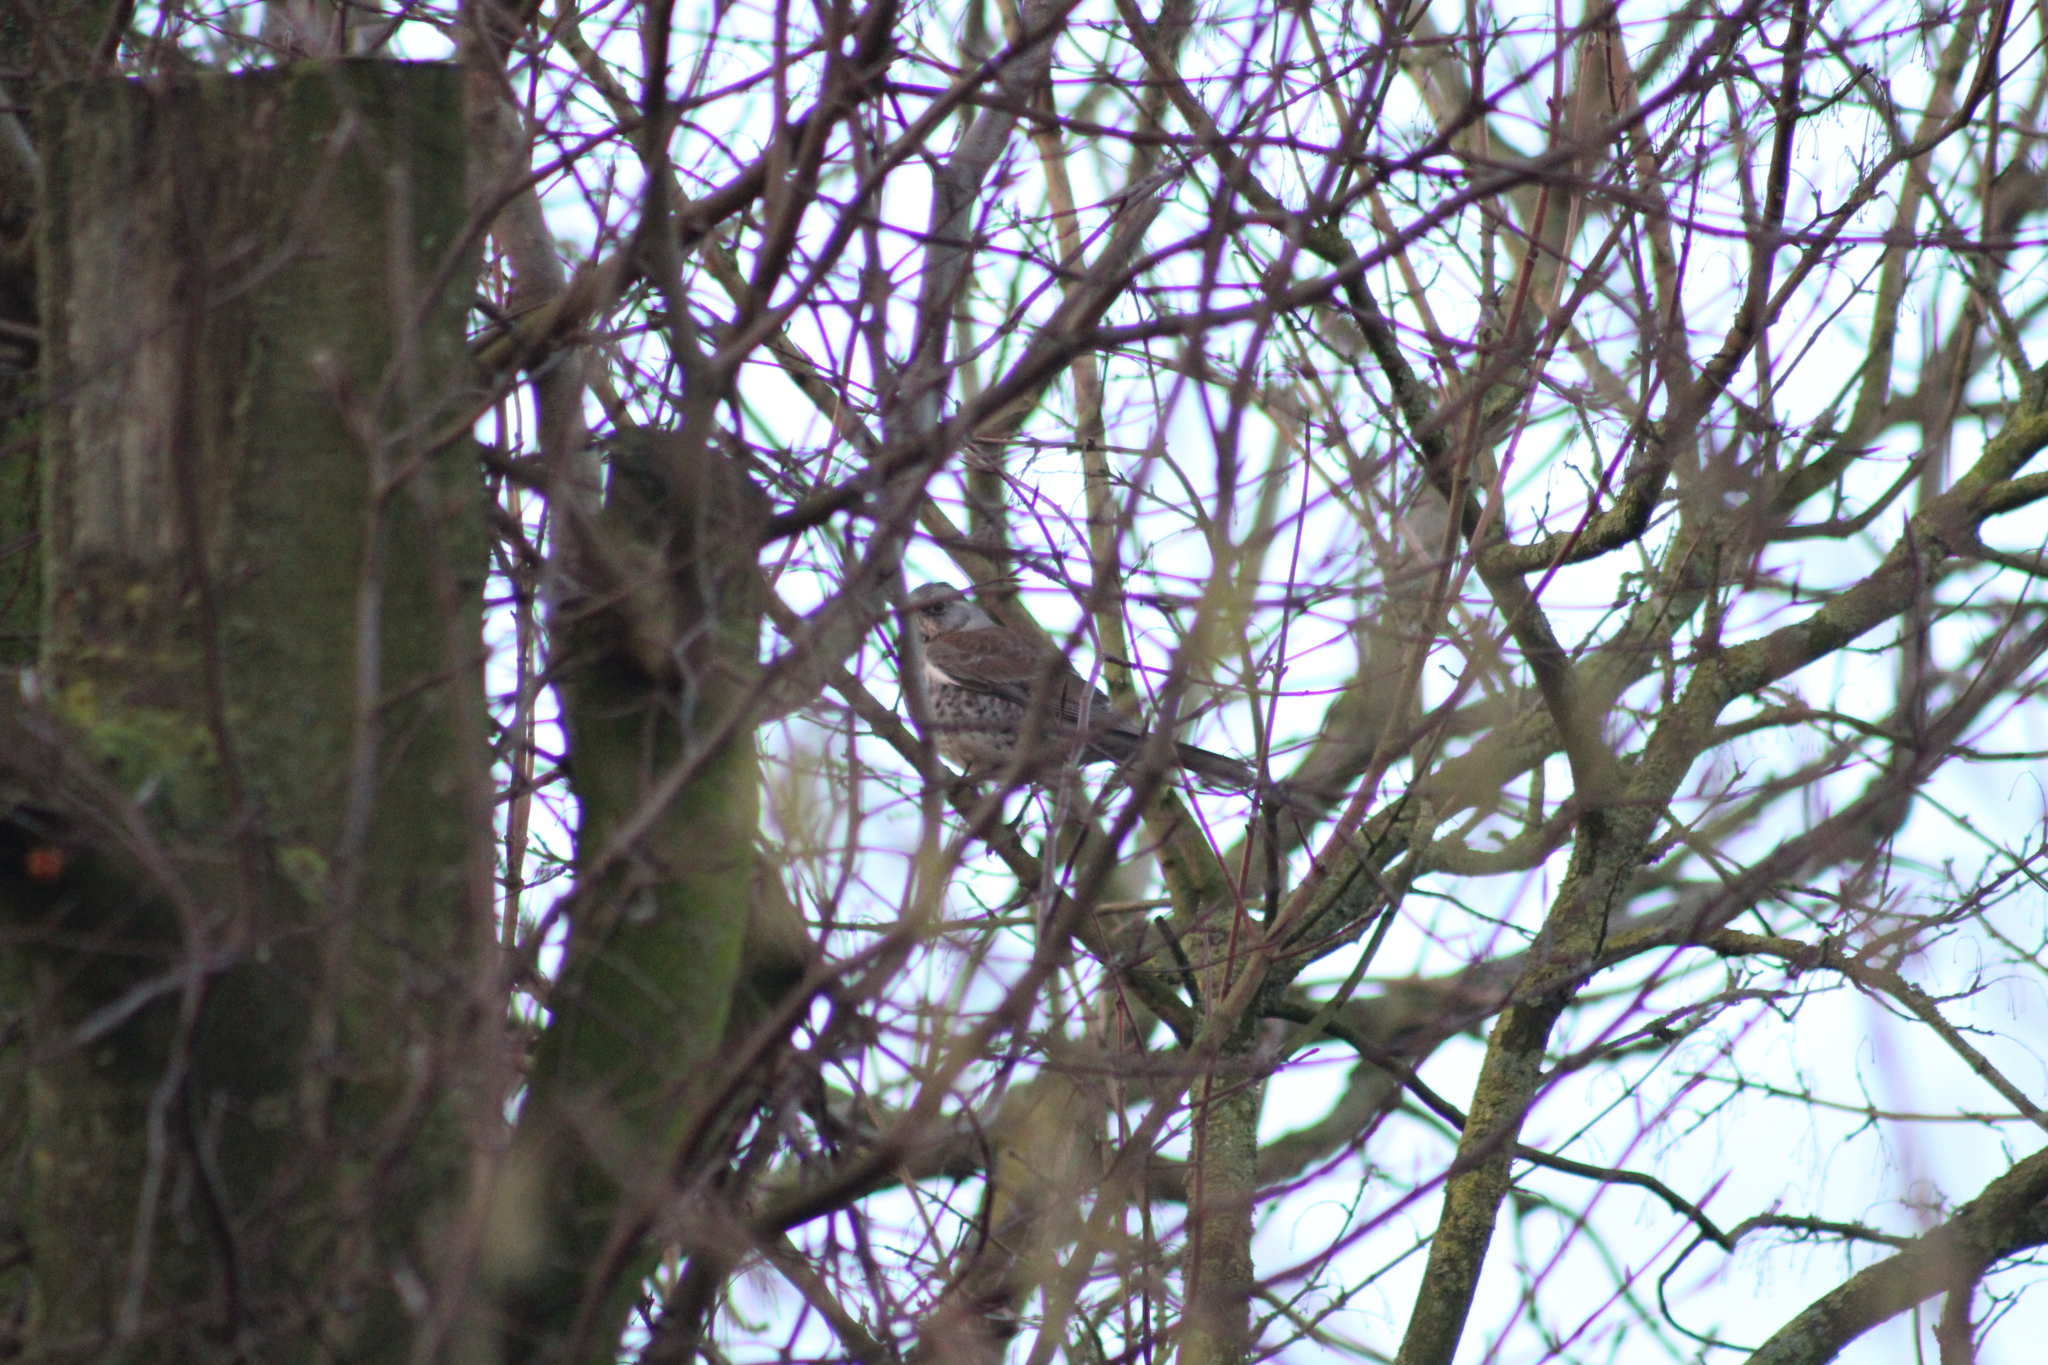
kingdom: Animalia
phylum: Chordata
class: Aves
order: Passeriformes
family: Turdidae
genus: Turdus
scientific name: Turdus pilaris
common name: Fieldfare
